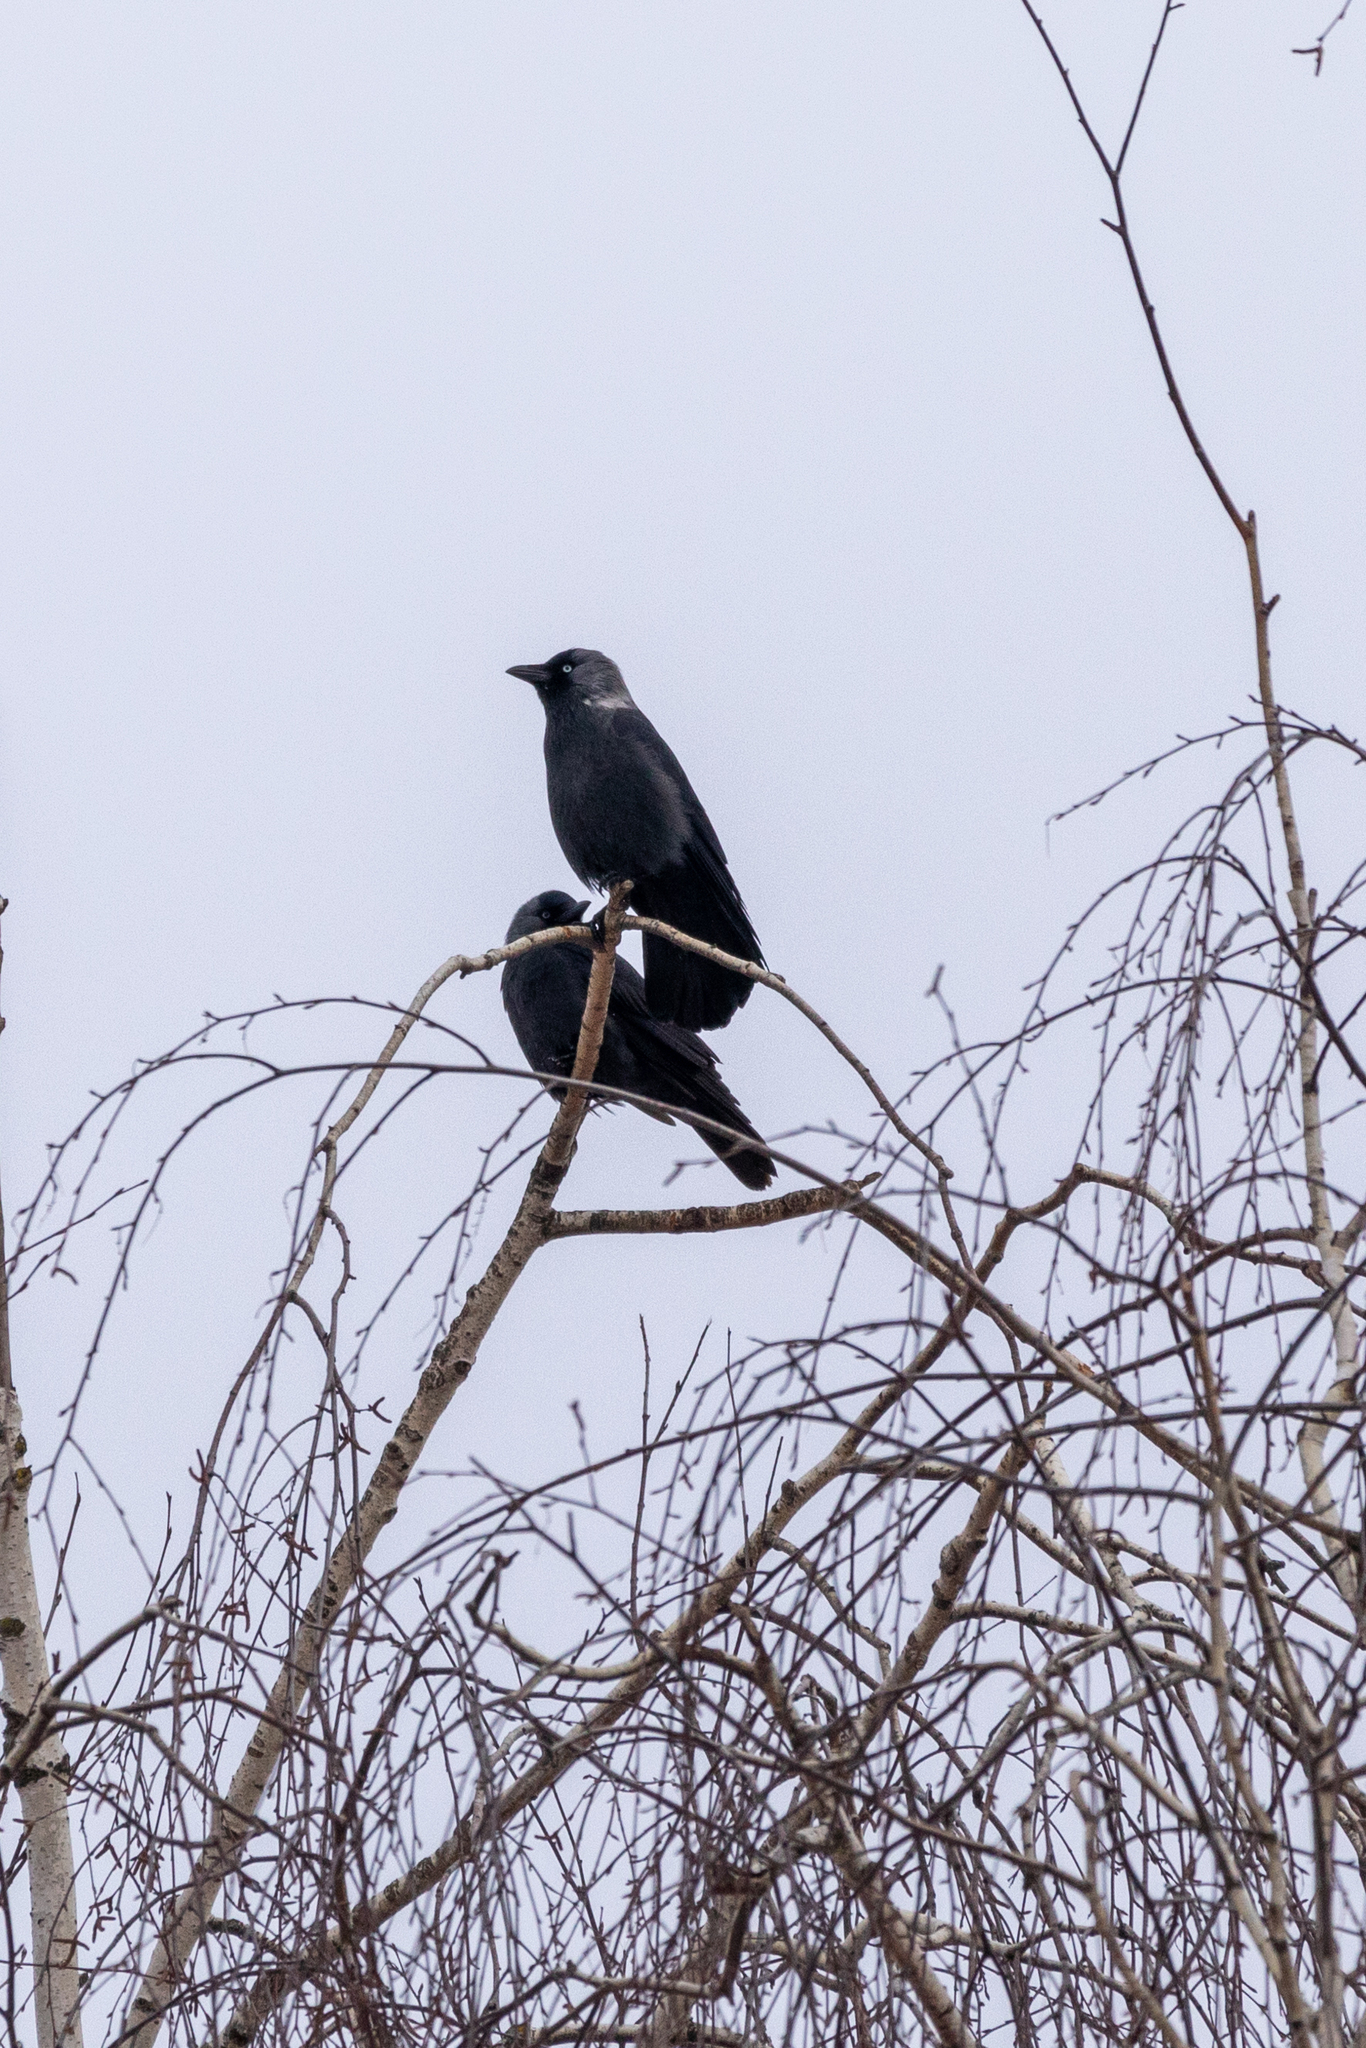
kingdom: Animalia
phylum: Chordata
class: Aves
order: Passeriformes
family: Corvidae
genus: Coloeus
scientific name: Coloeus monedula
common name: Western jackdaw
